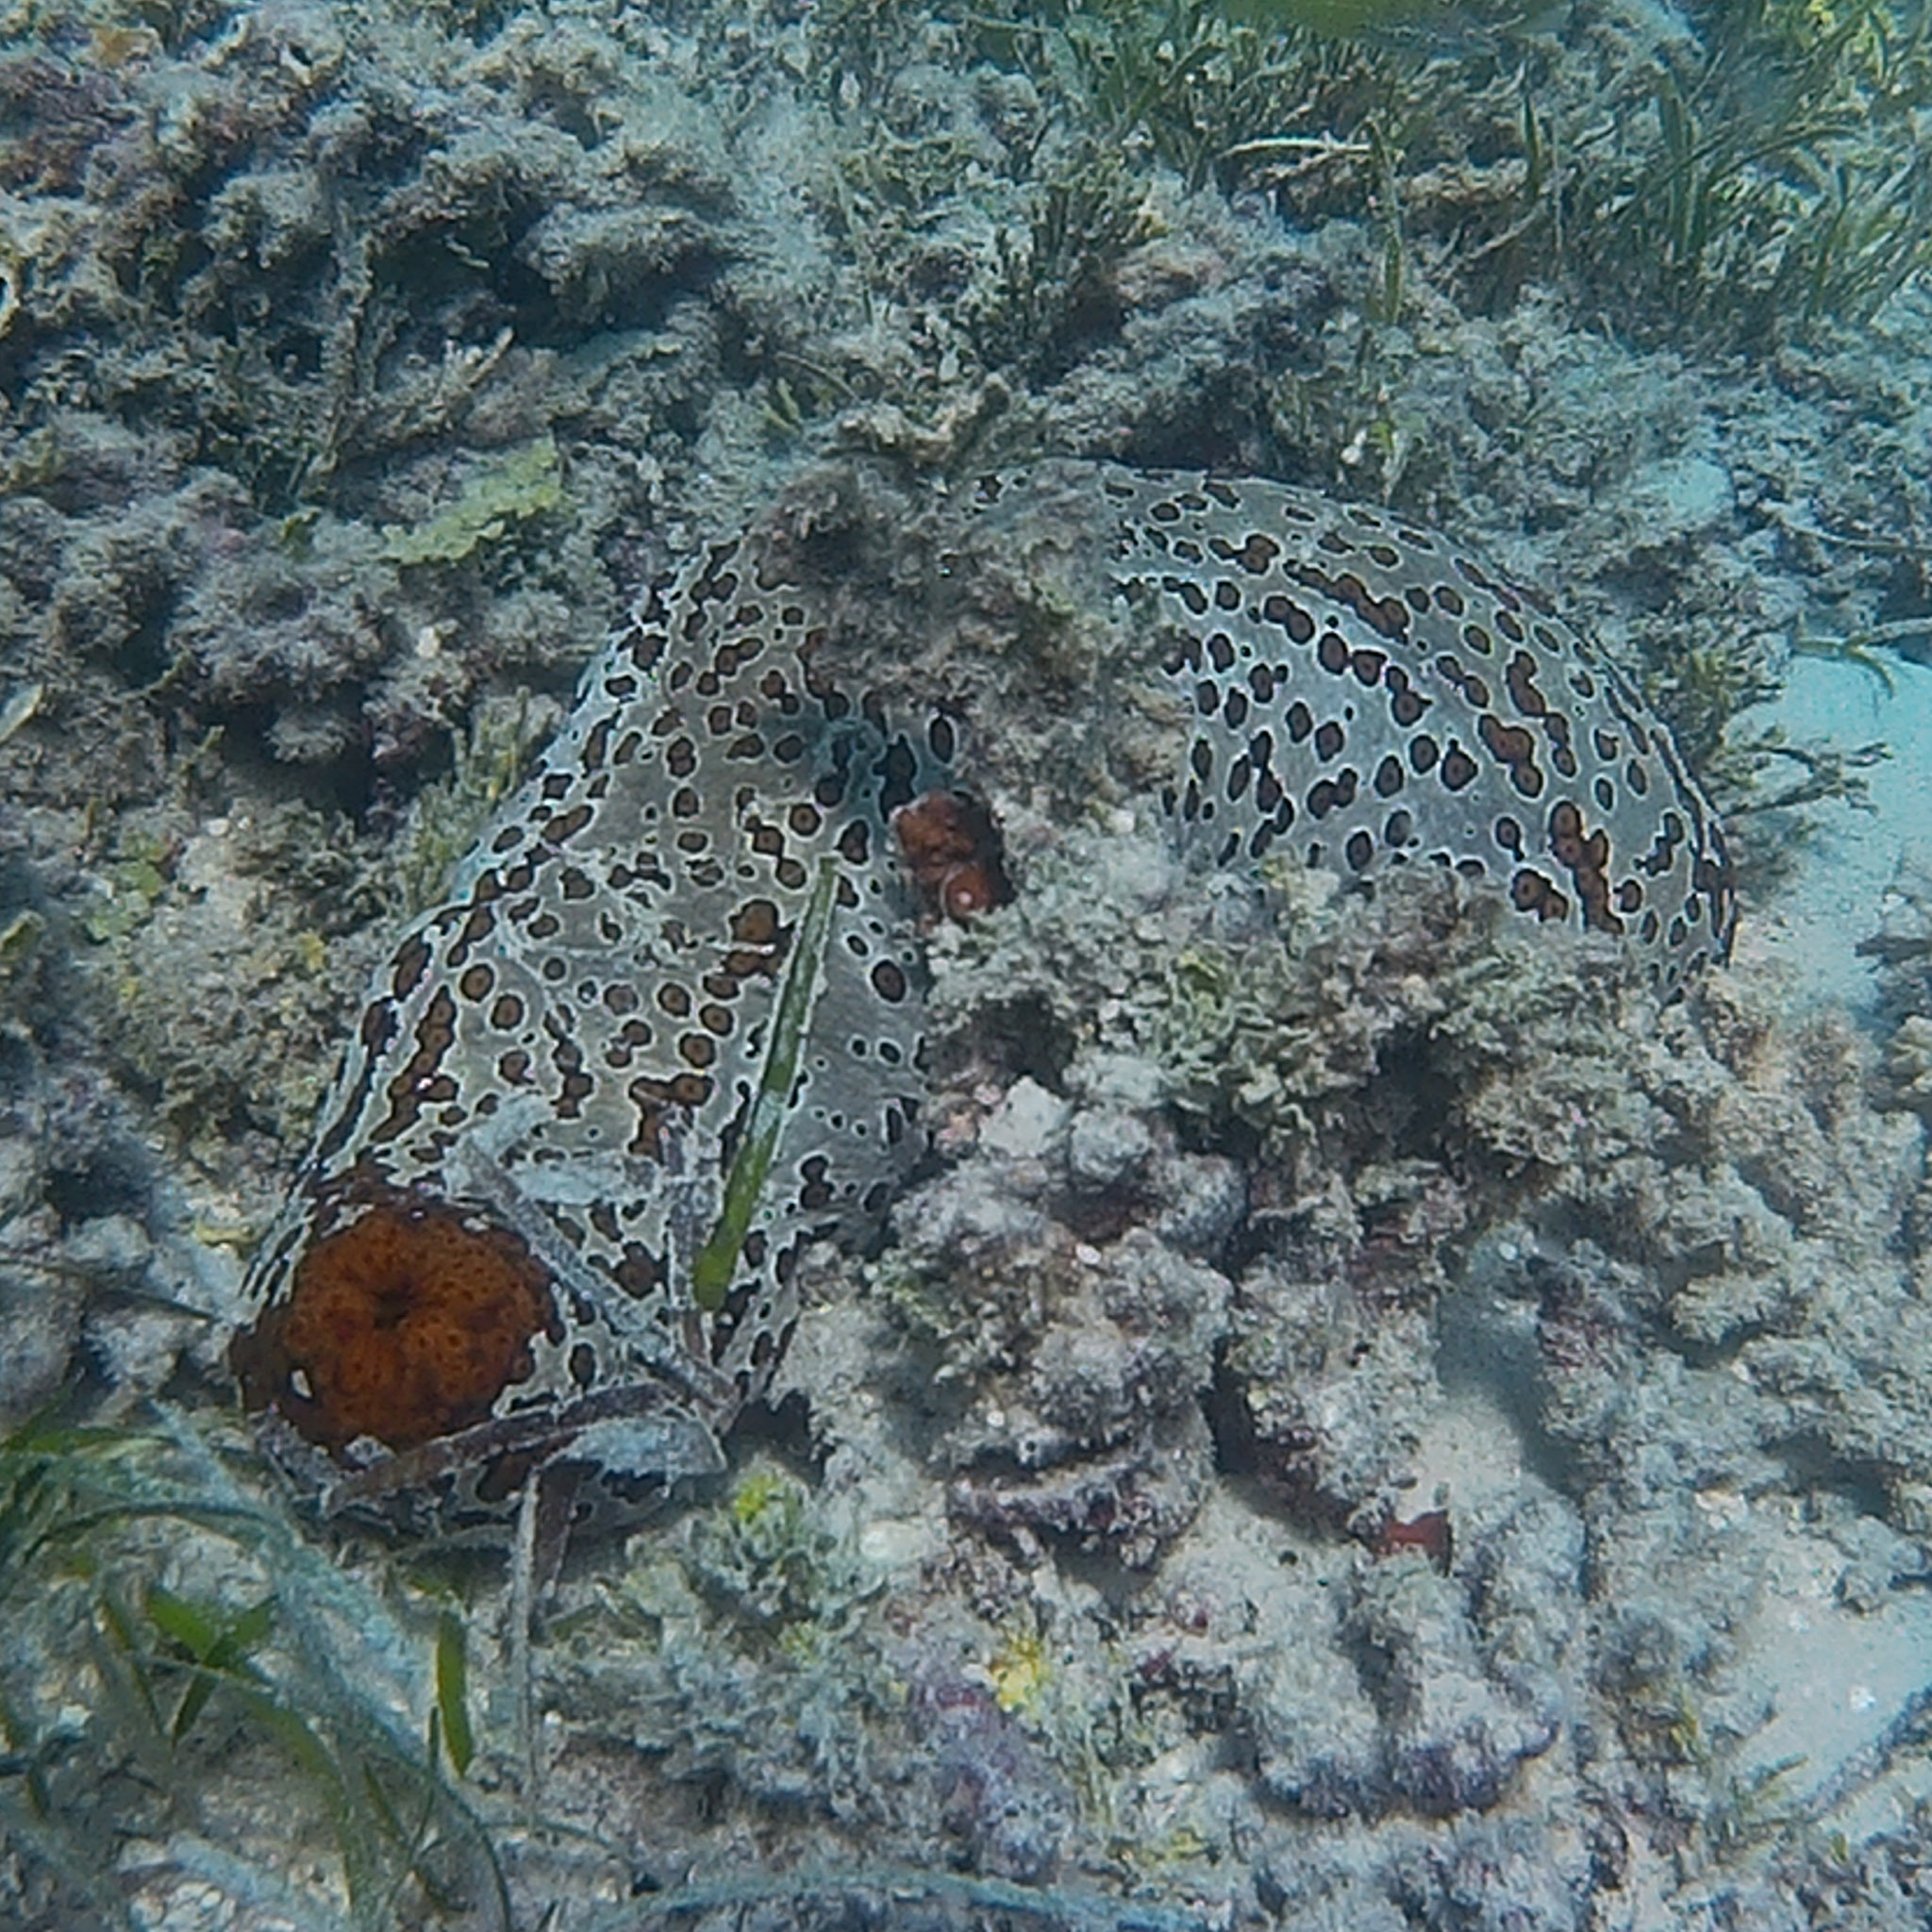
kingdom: Animalia
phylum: Echinodermata
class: Holothuroidea
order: Holothuriida
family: Holothuriidae
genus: Bohadschia
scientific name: Bohadschia argus
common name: Leopardfish
